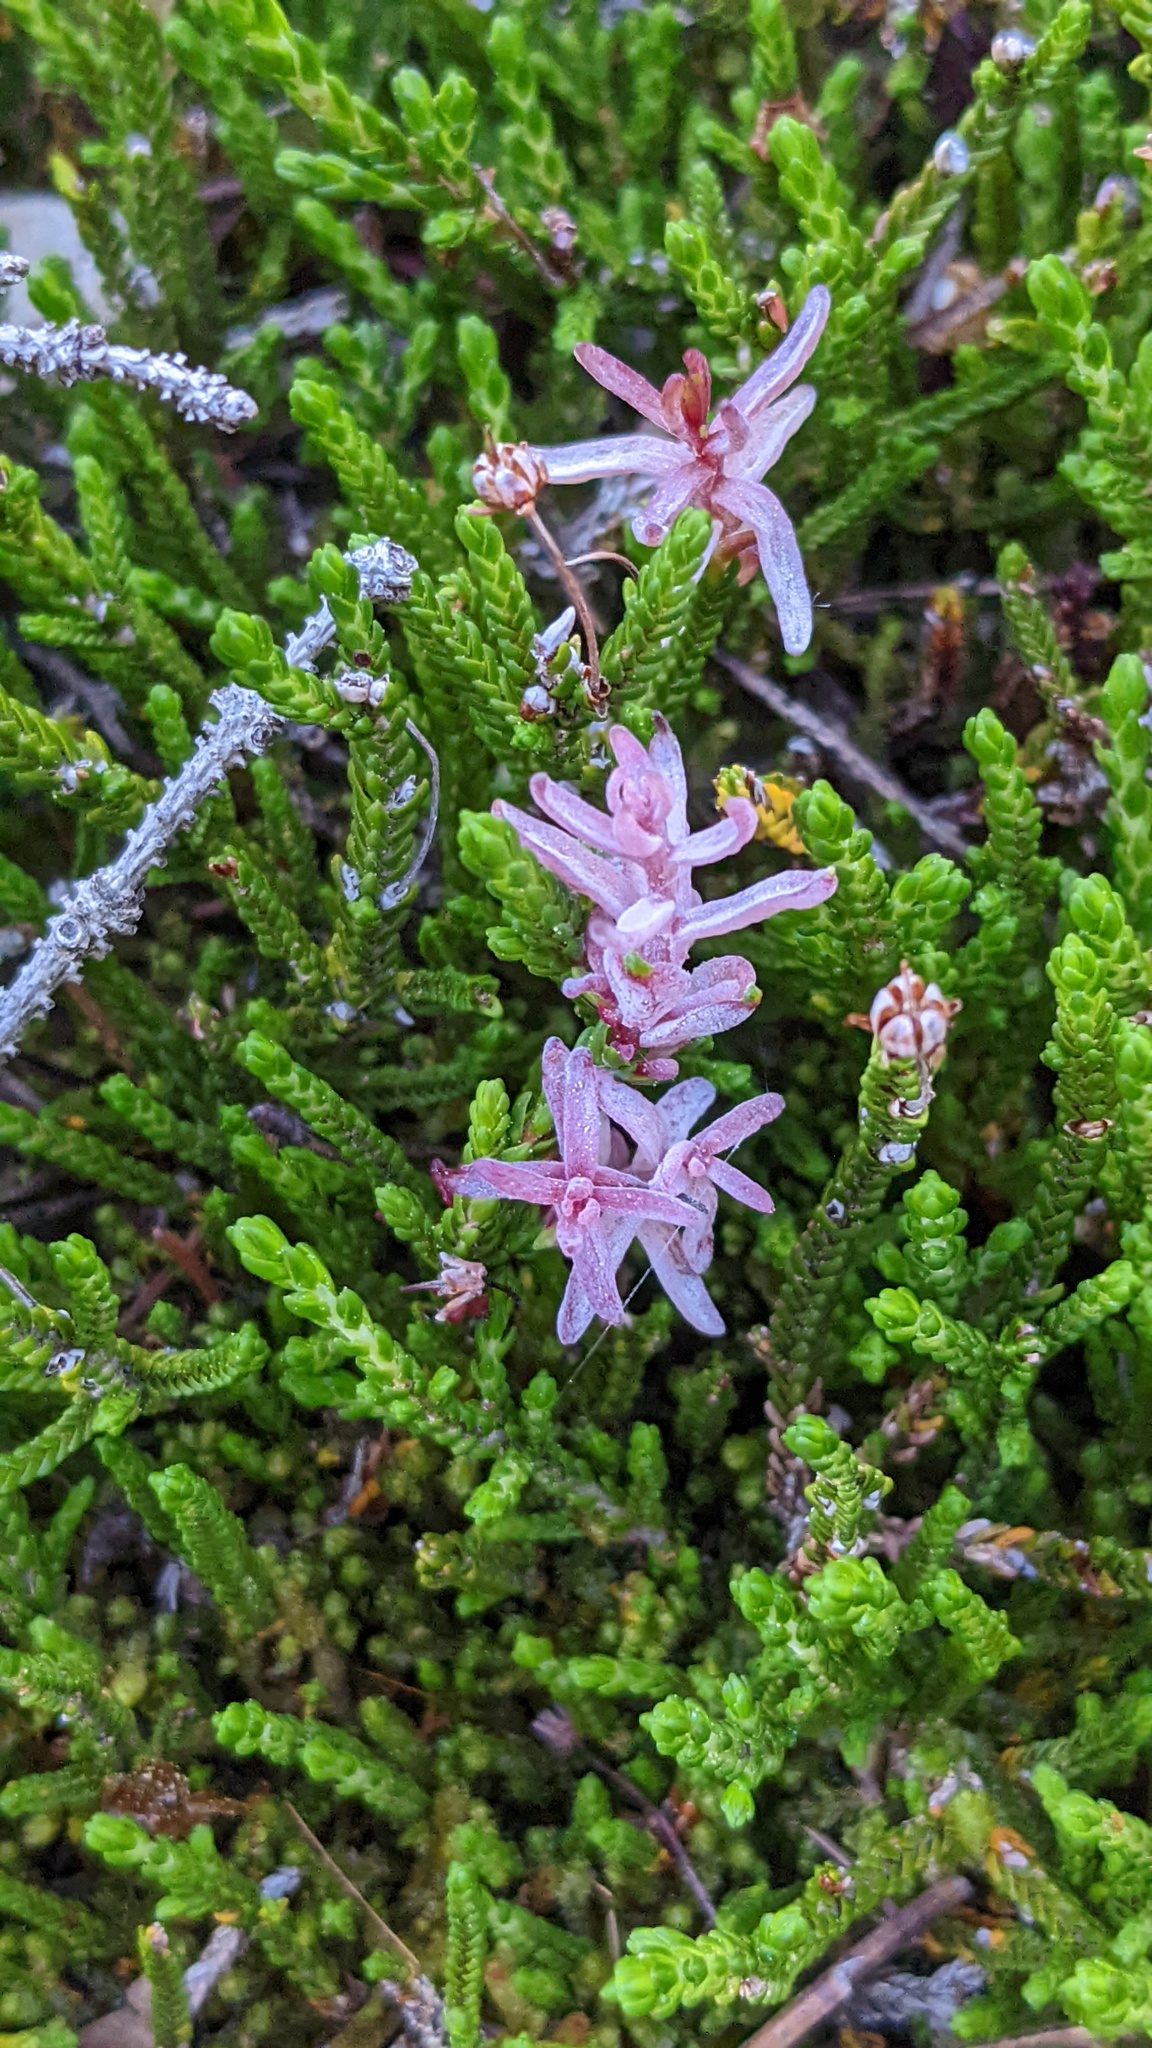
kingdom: Fungi
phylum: Basidiomycota
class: Exobasidiomycetes
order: Exobasidiales
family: Exobasidiaceae
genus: Exobasidium
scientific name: Exobasidium cassiopes
